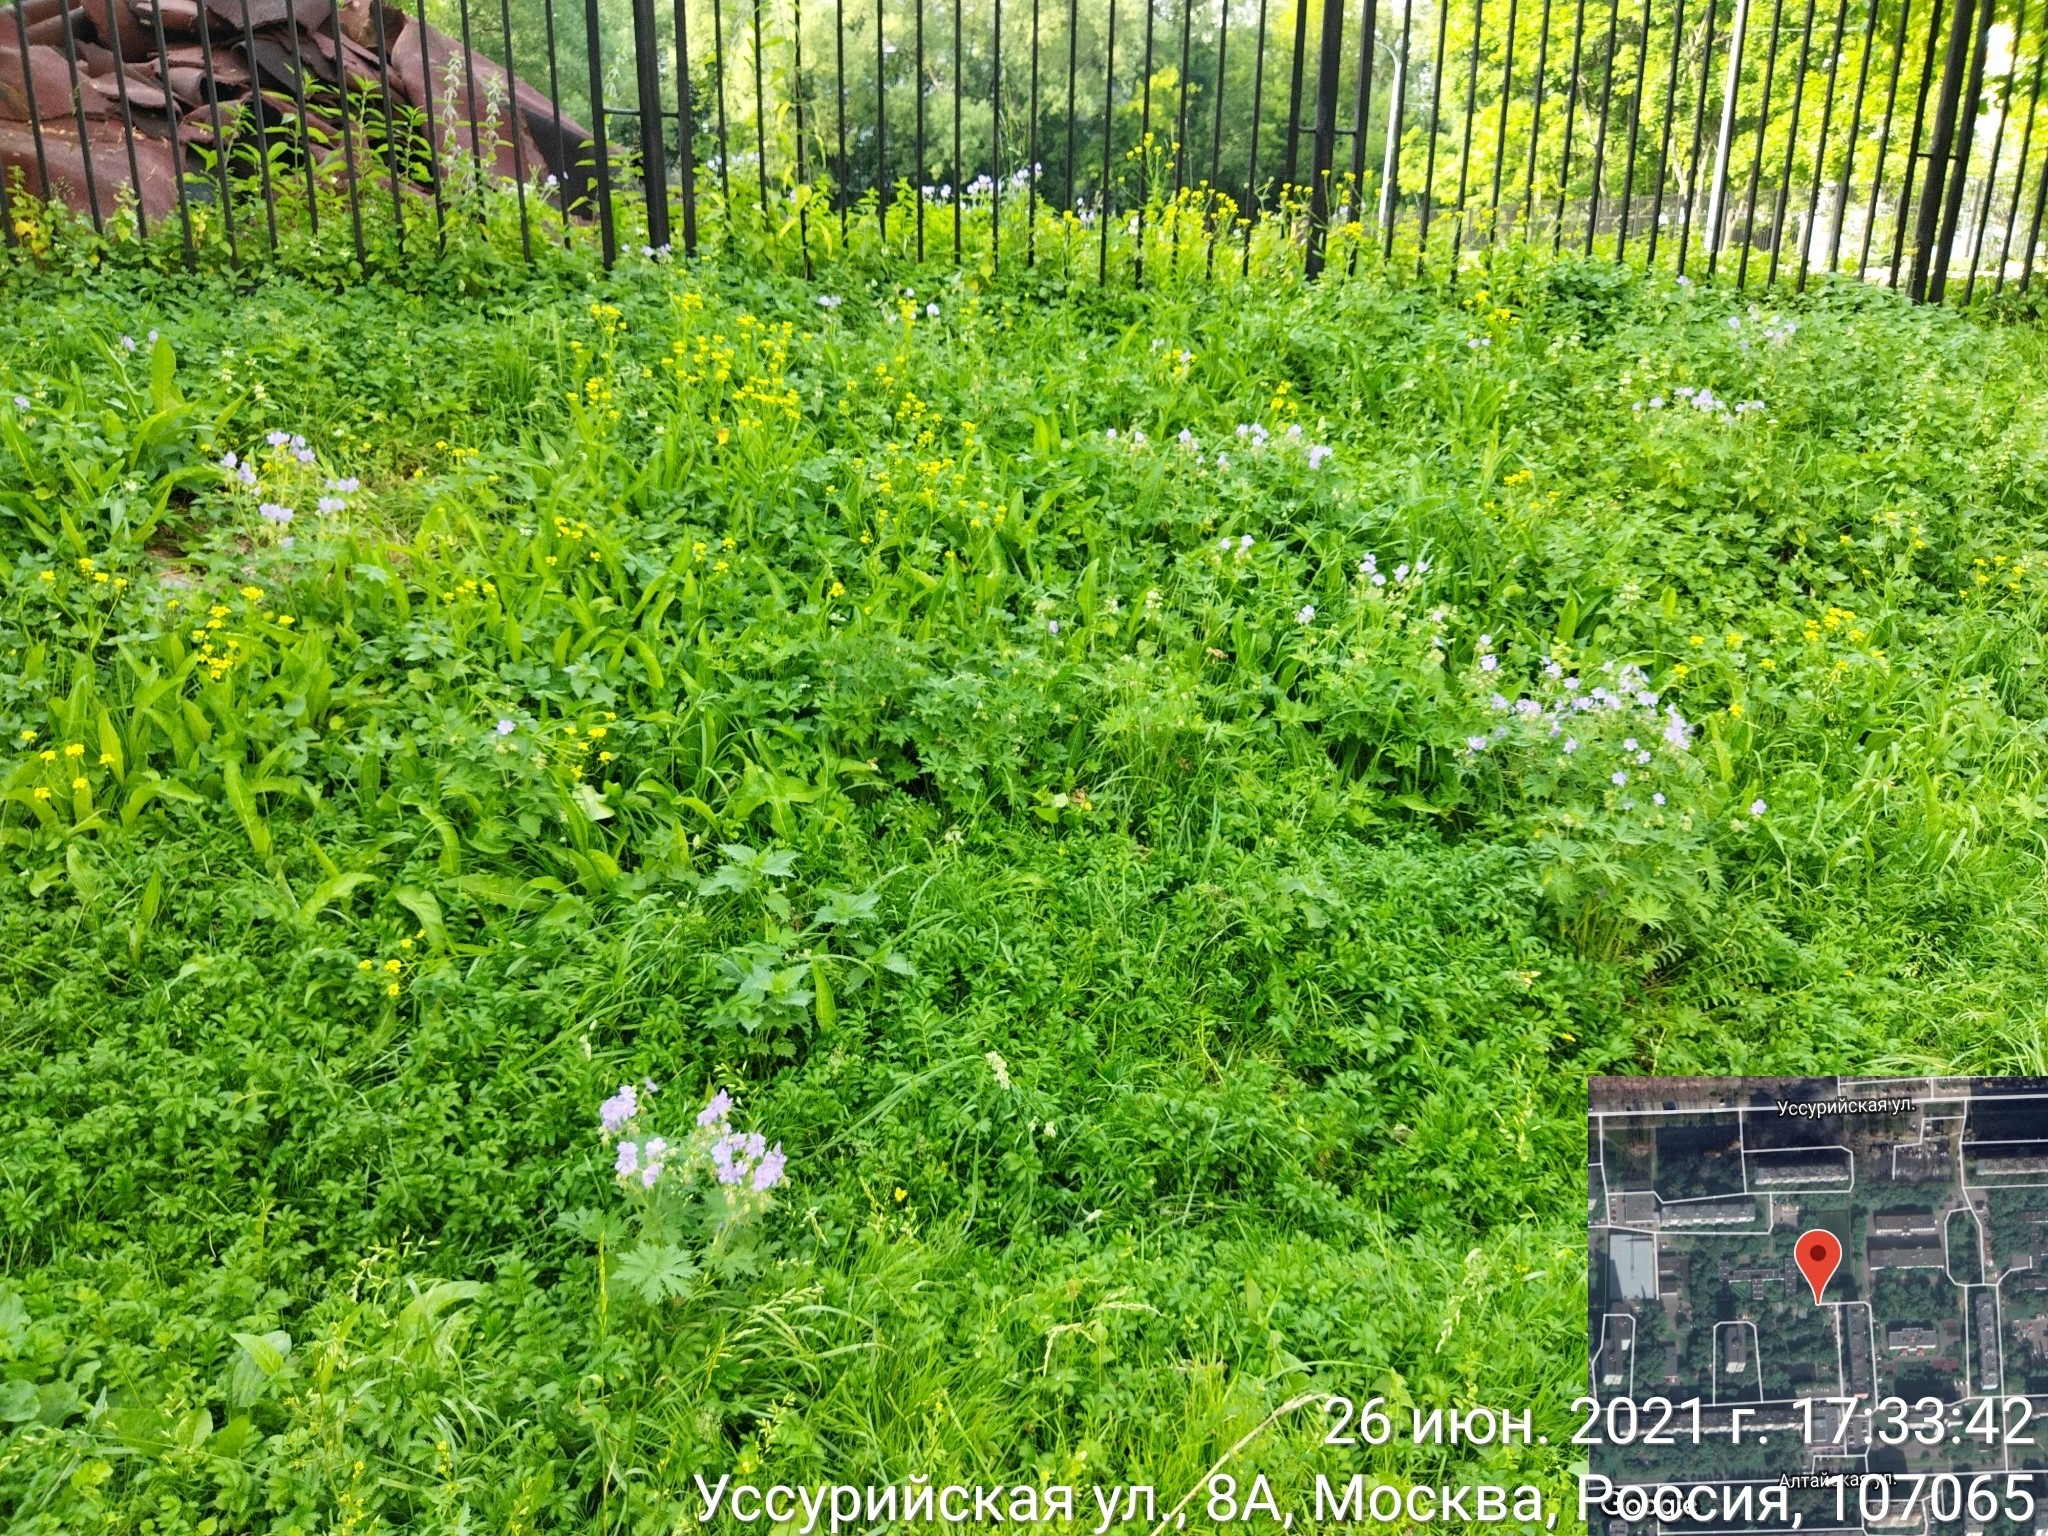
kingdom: Plantae
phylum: Tracheophyta
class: Magnoliopsida
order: Geraniales
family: Geraniaceae
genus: Geranium
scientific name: Geranium pratense
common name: Meadow crane's-bill
